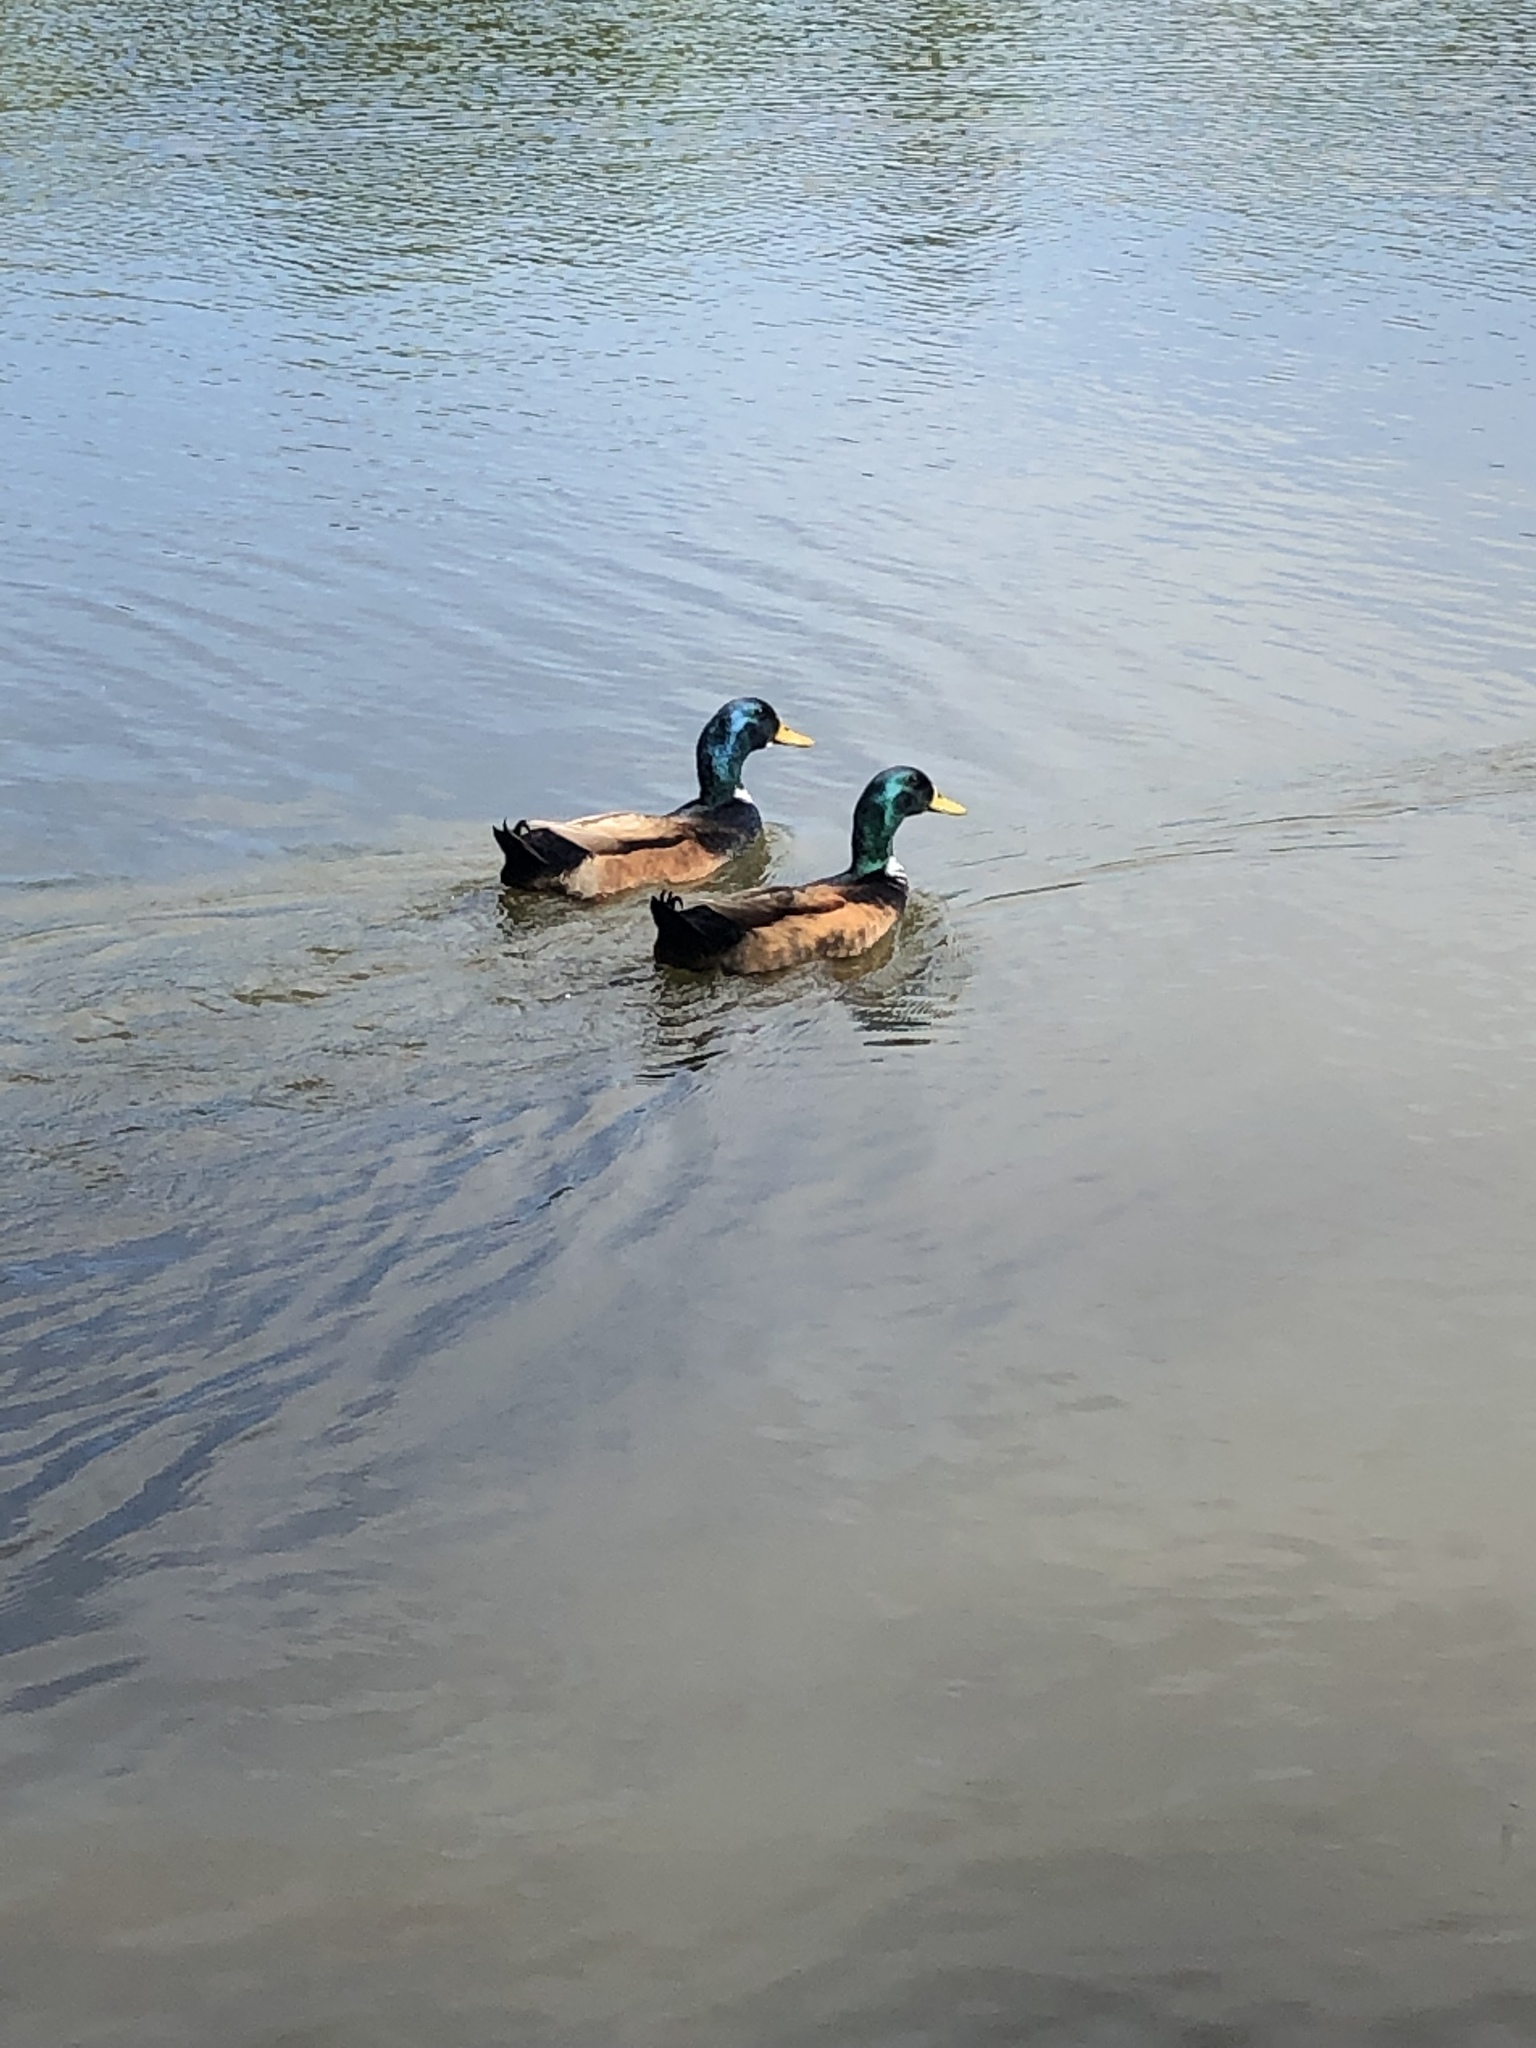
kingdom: Animalia
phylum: Chordata
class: Aves
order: Anseriformes
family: Anatidae
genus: Anas
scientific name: Anas platyrhynchos
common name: Mallard
